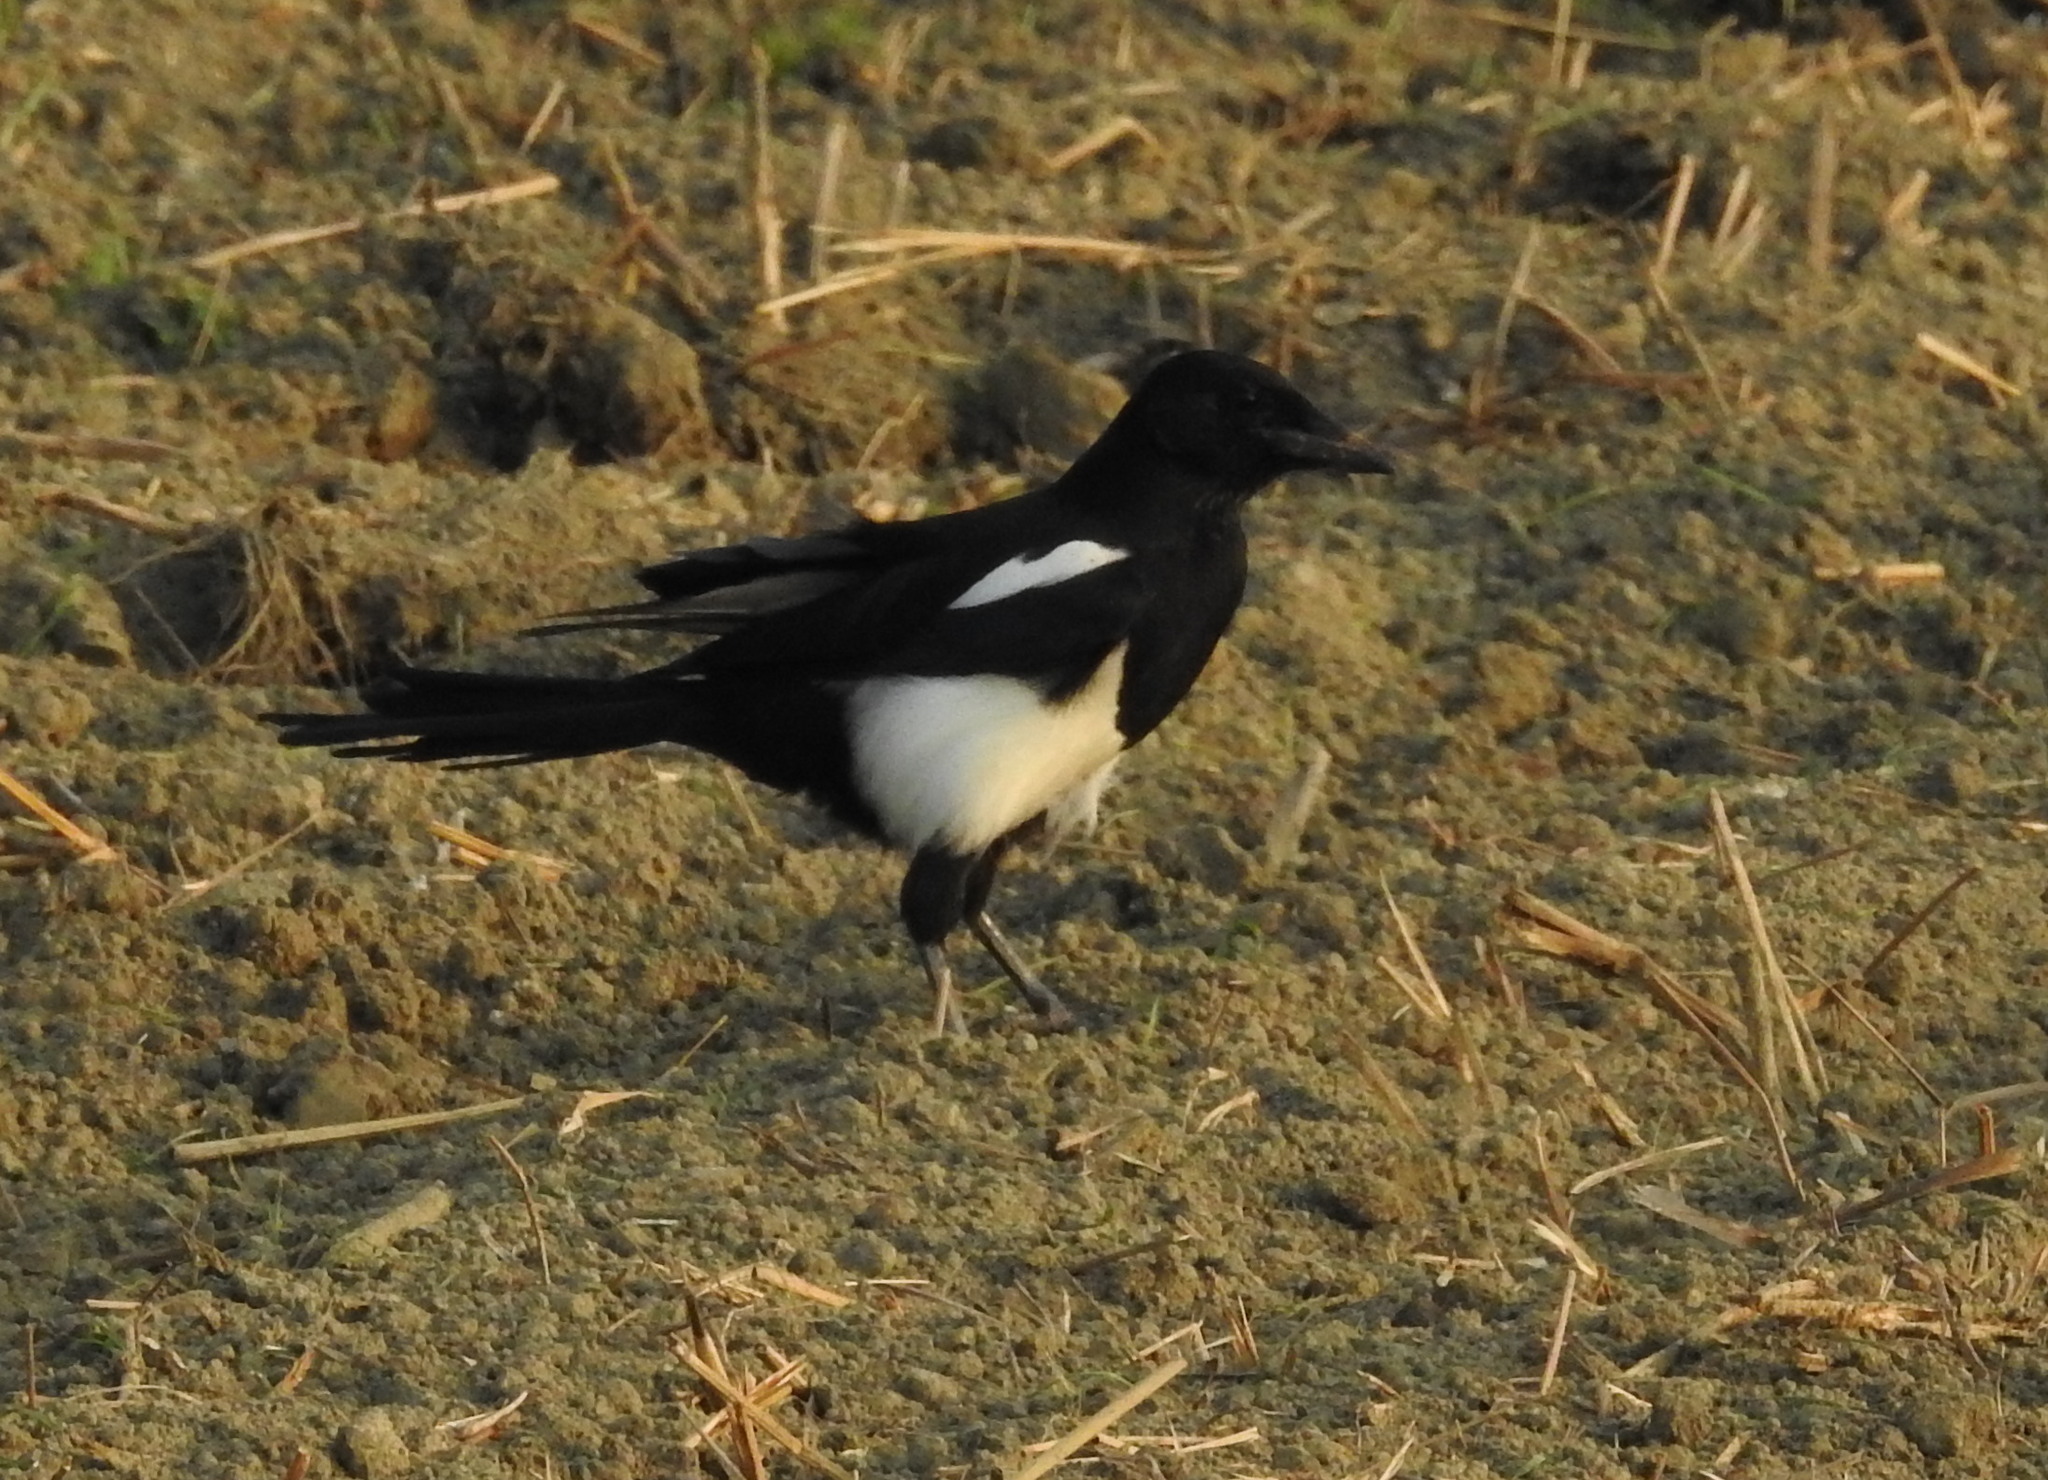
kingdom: Animalia
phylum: Chordata
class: Aves
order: Passeriformes
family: Corvidae
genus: Pica
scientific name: Pica serica
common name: Oriental magpie
